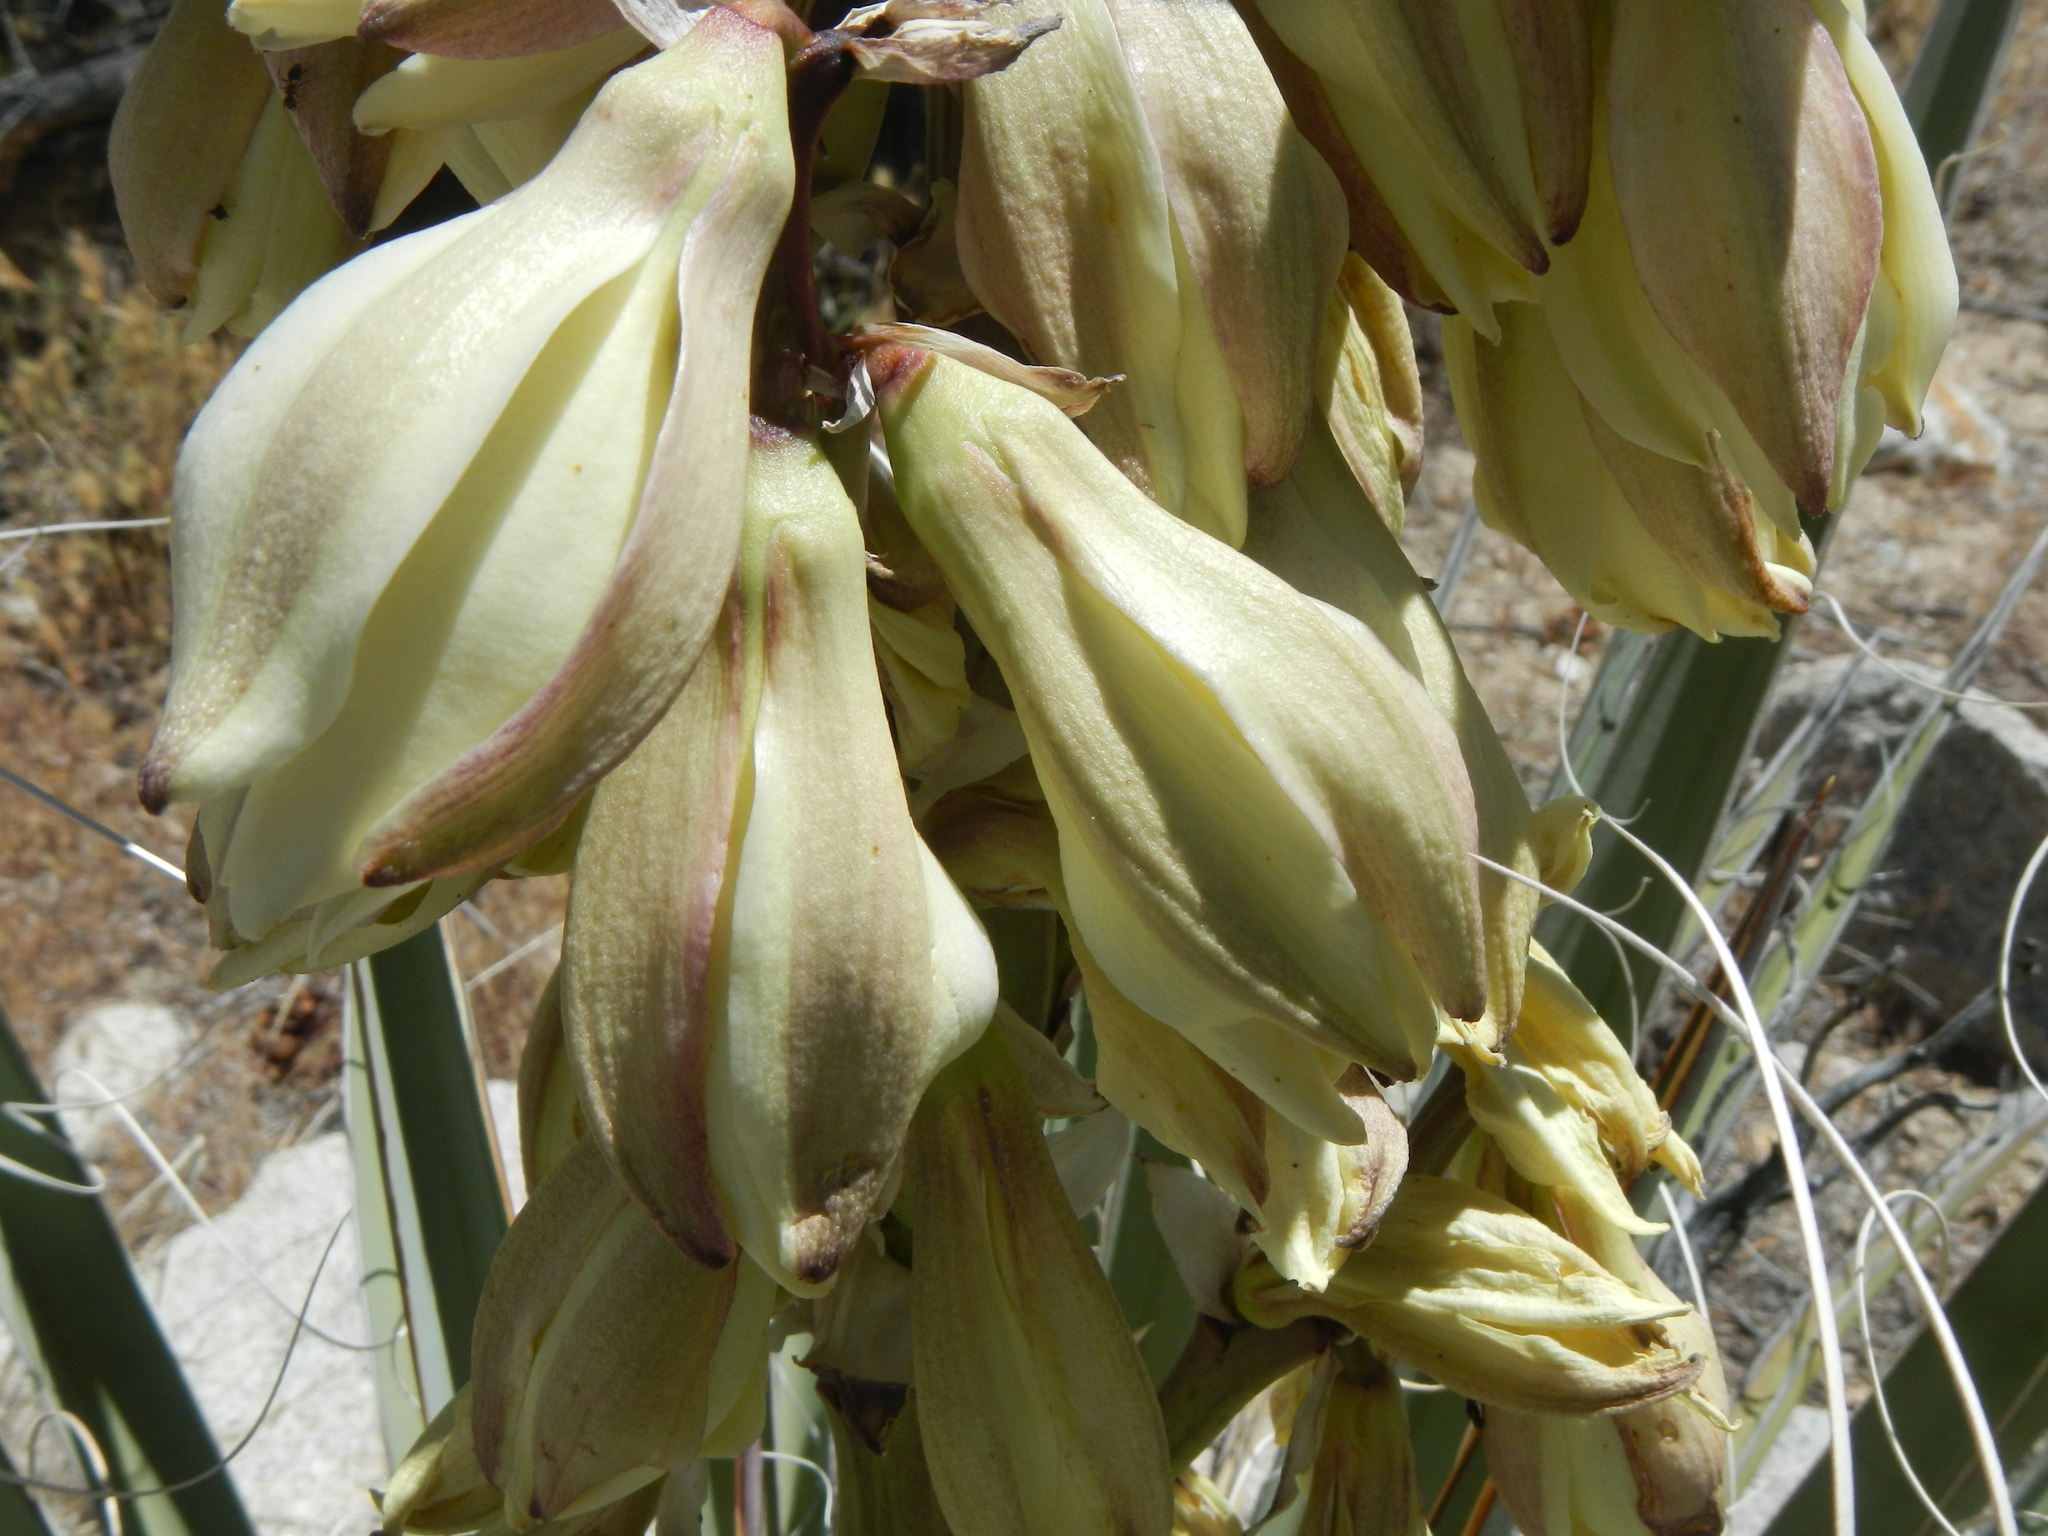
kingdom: Plantae
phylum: Tracheophyta
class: Liliopsida
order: Asparagales
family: Asparagaceae
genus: Yucca
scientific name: Yucca baccata
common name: Banana yucca
